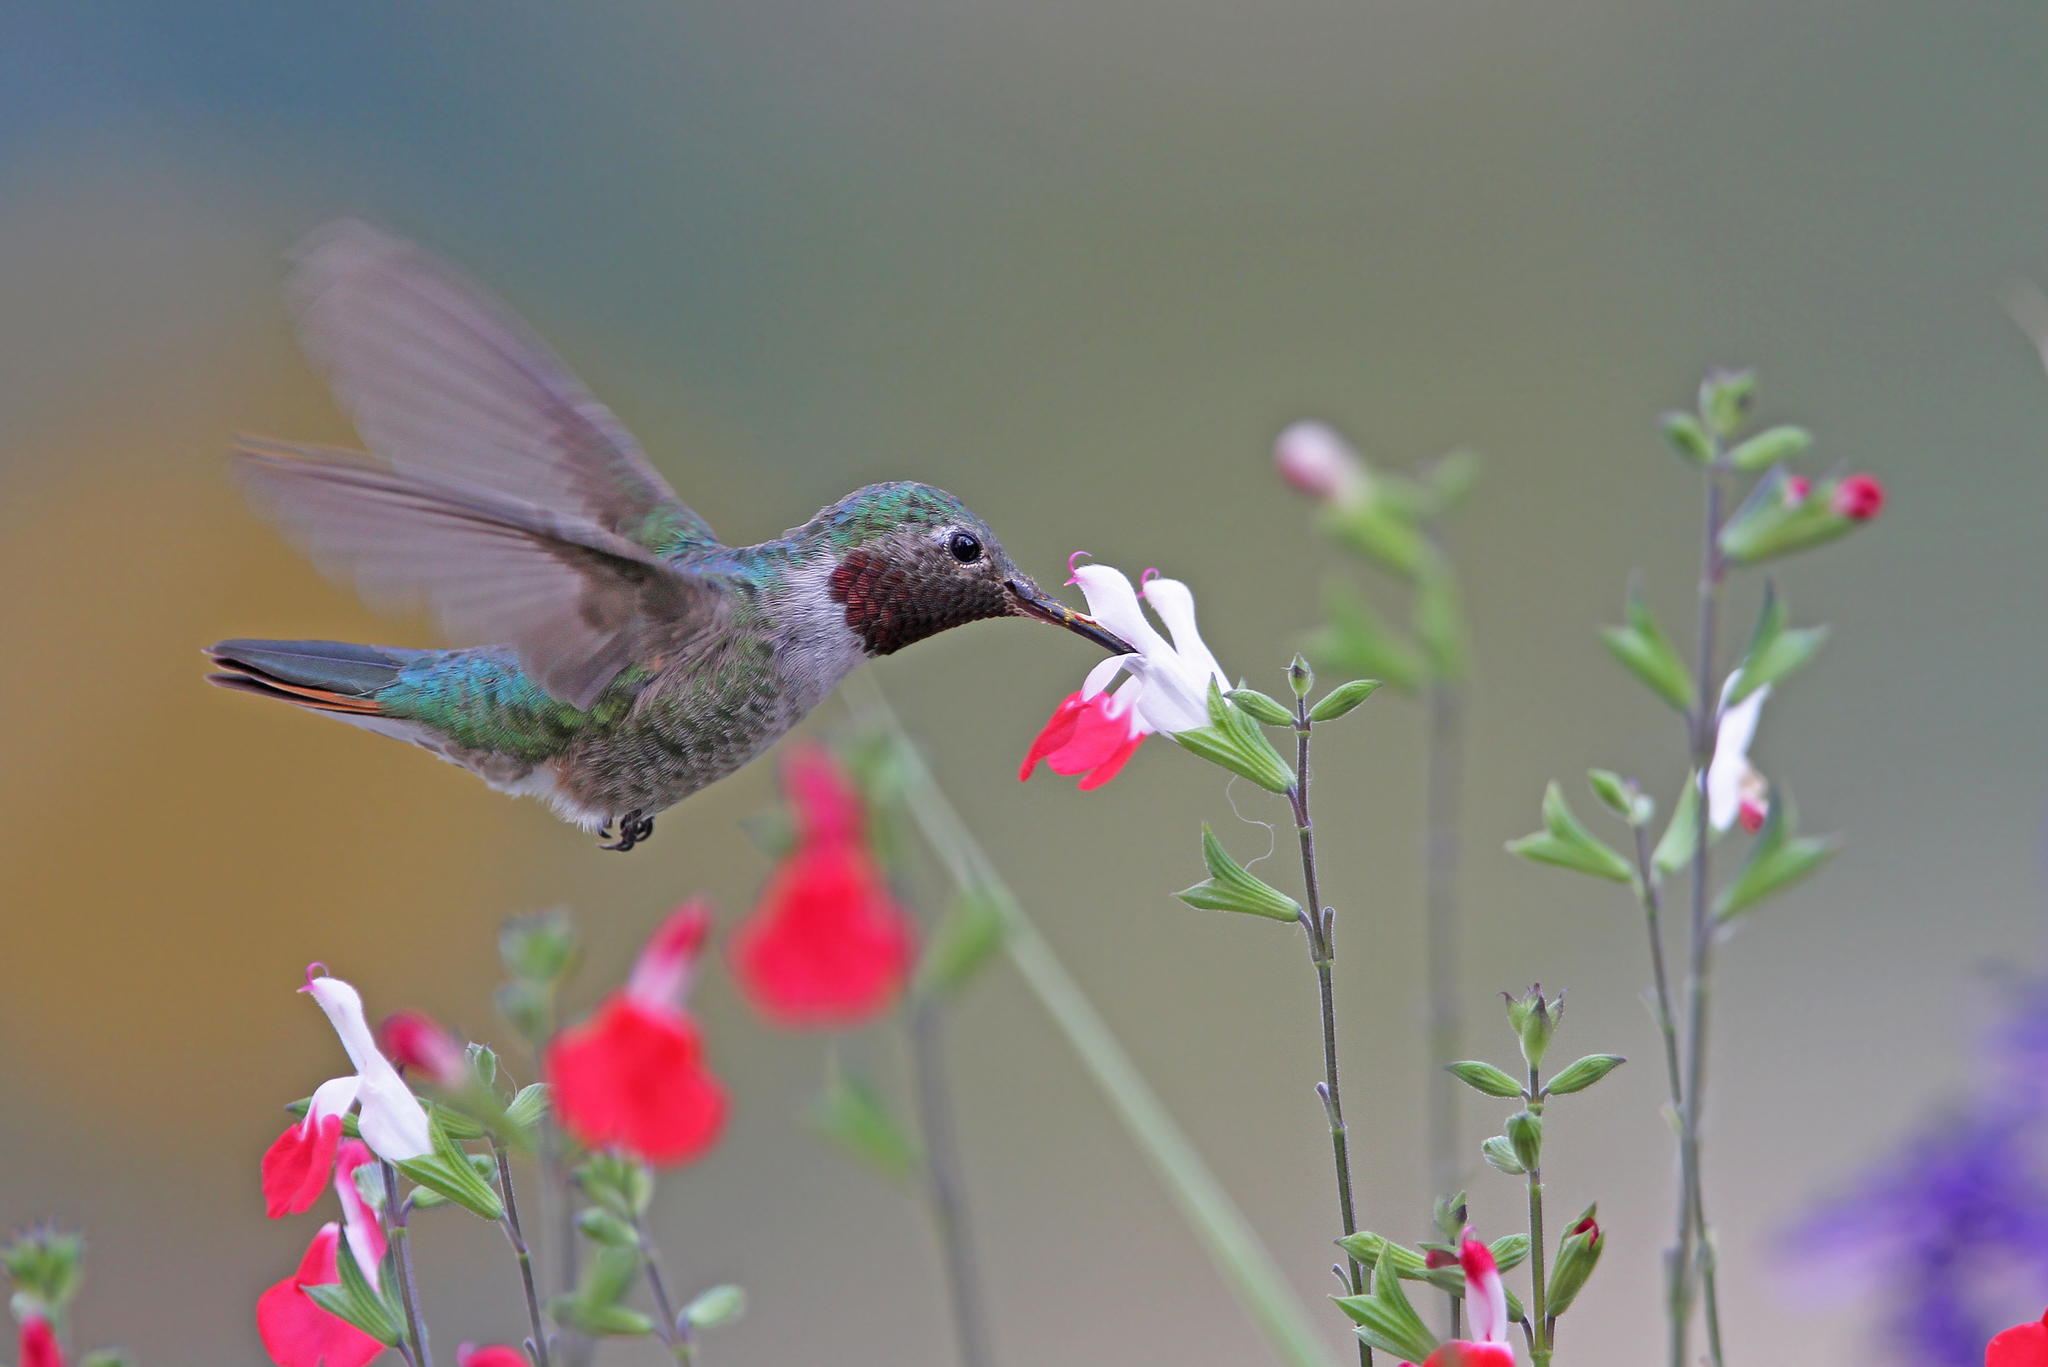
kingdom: Animalia
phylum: Chordata
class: Aves
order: Apodiformes
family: Trochilidae
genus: Selasphorus
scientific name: Selasphorus platycercus
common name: Broad-tailed hummingbird
